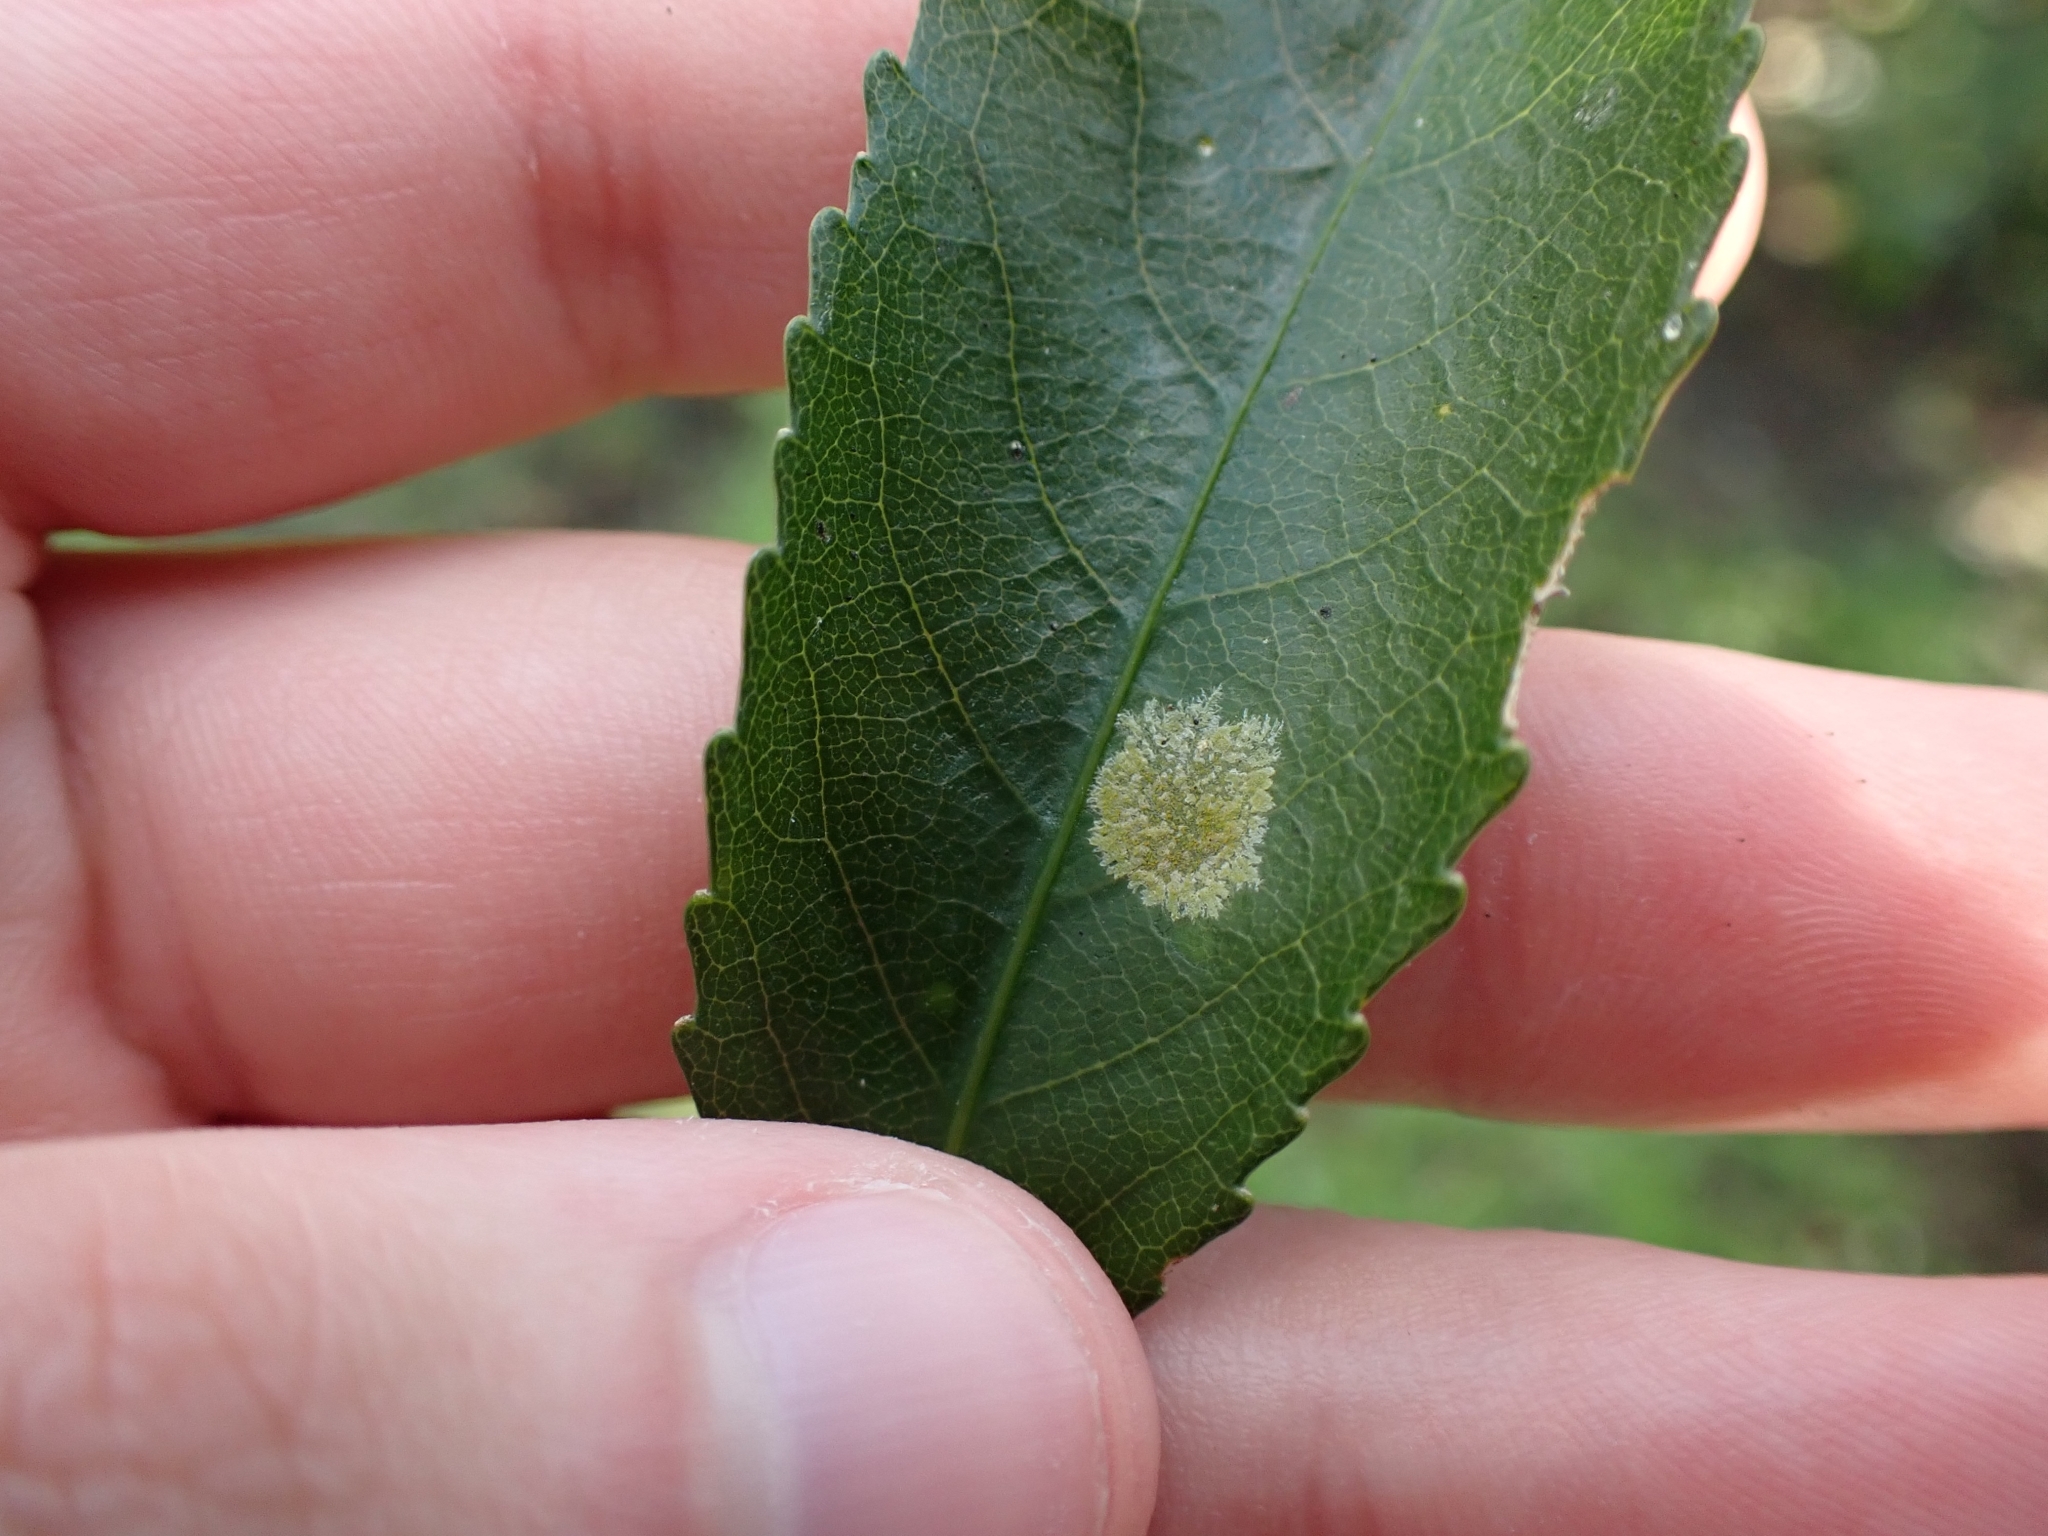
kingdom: Plantae
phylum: Chlorophyta
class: Ulvophyceae
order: Trentepohliales
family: Trentepohliaceae
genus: Cephaleuros
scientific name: Cephaleuros
